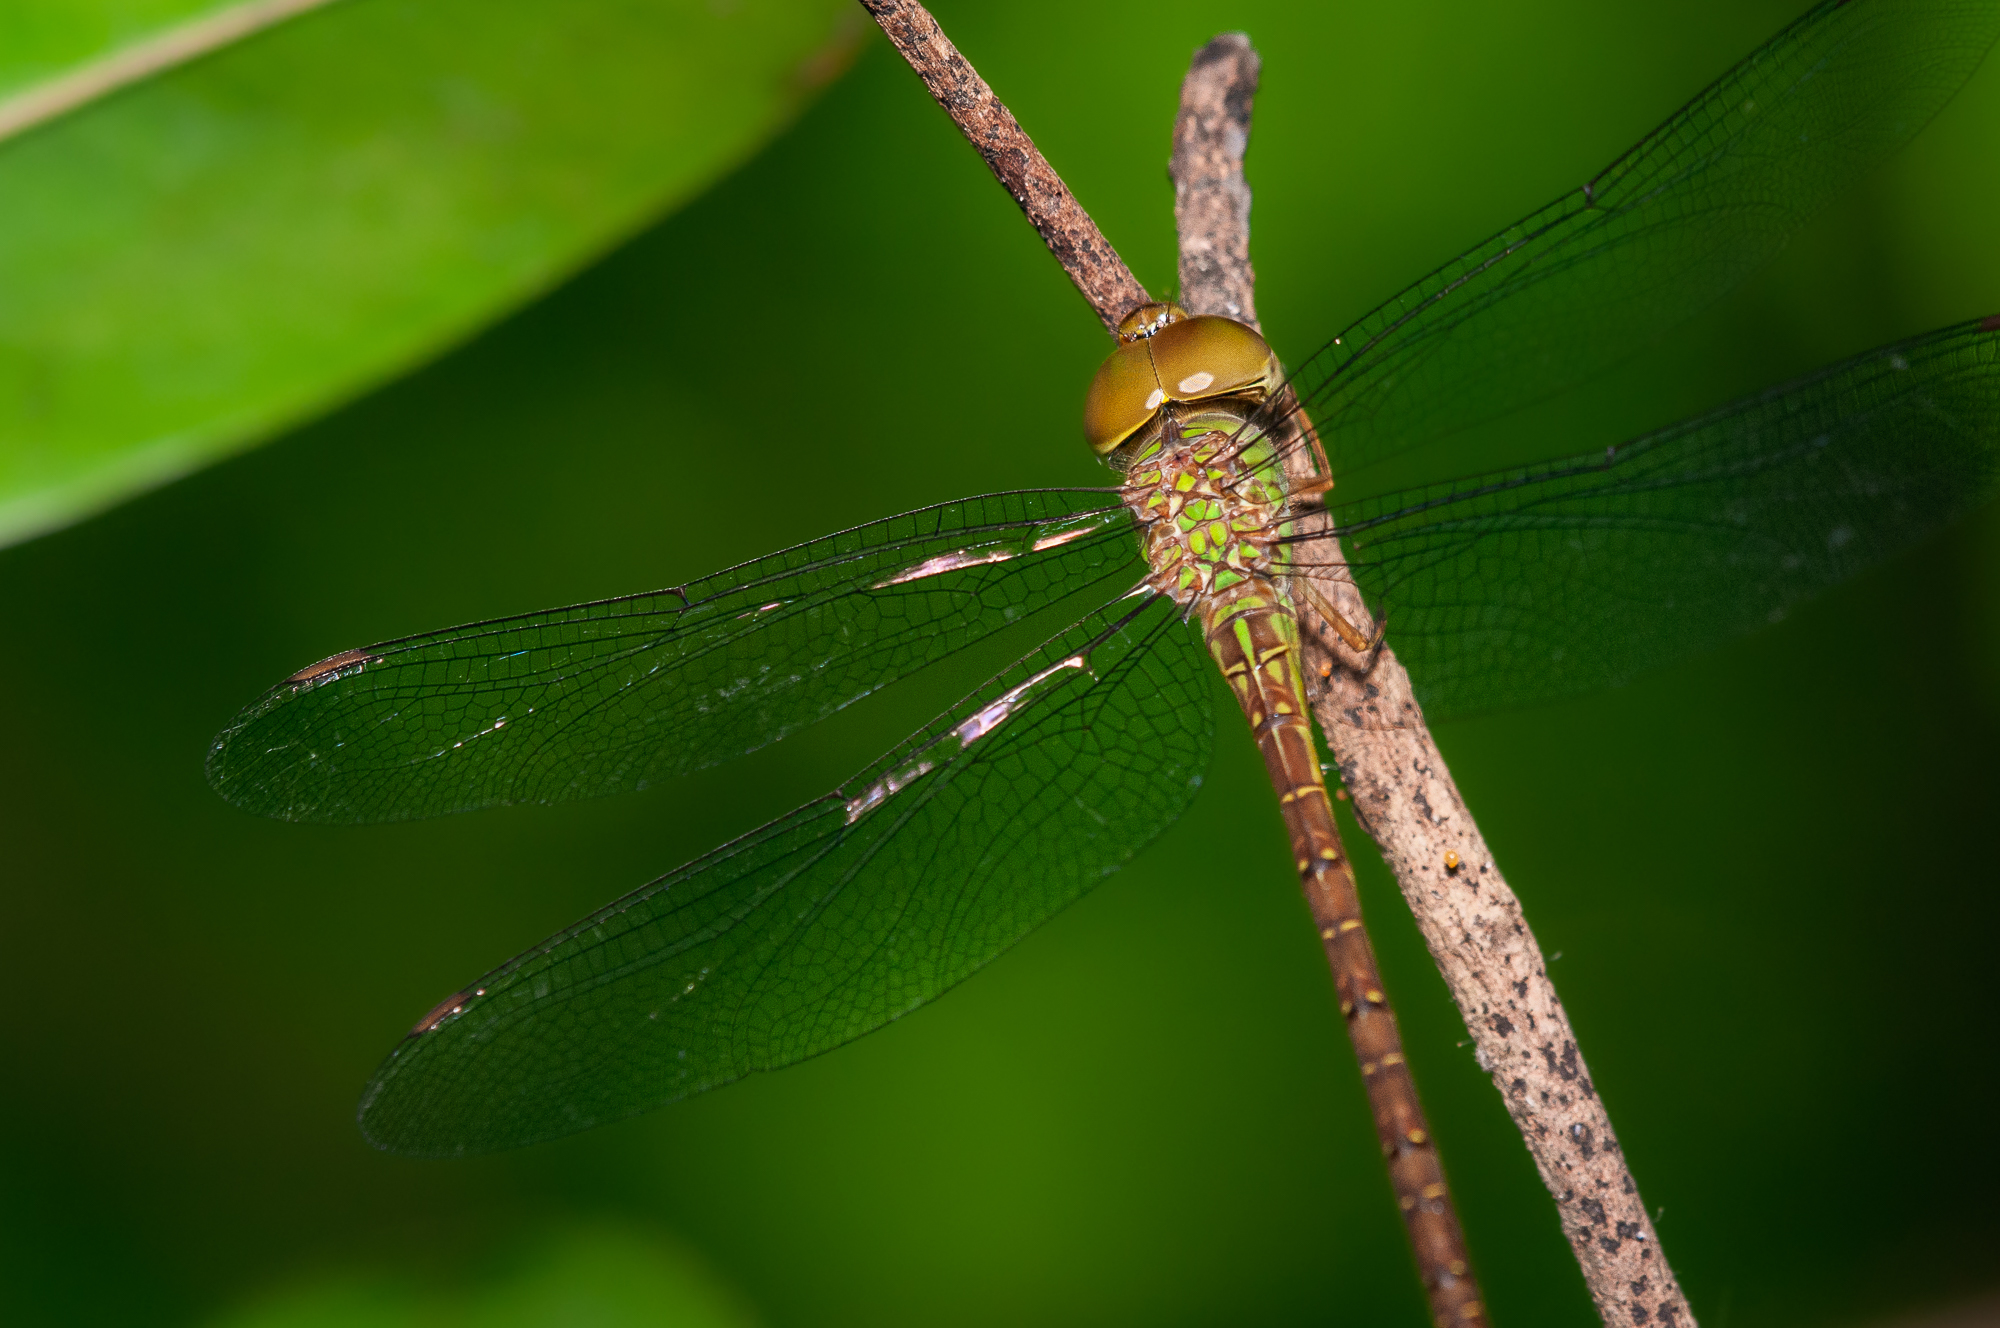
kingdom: Animalia
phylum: Arthropoda
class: Insecta
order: Odonata
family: Aeshnidae
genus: Triacanthagyna
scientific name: Triacanthagyna septima
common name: Pale-green darner
